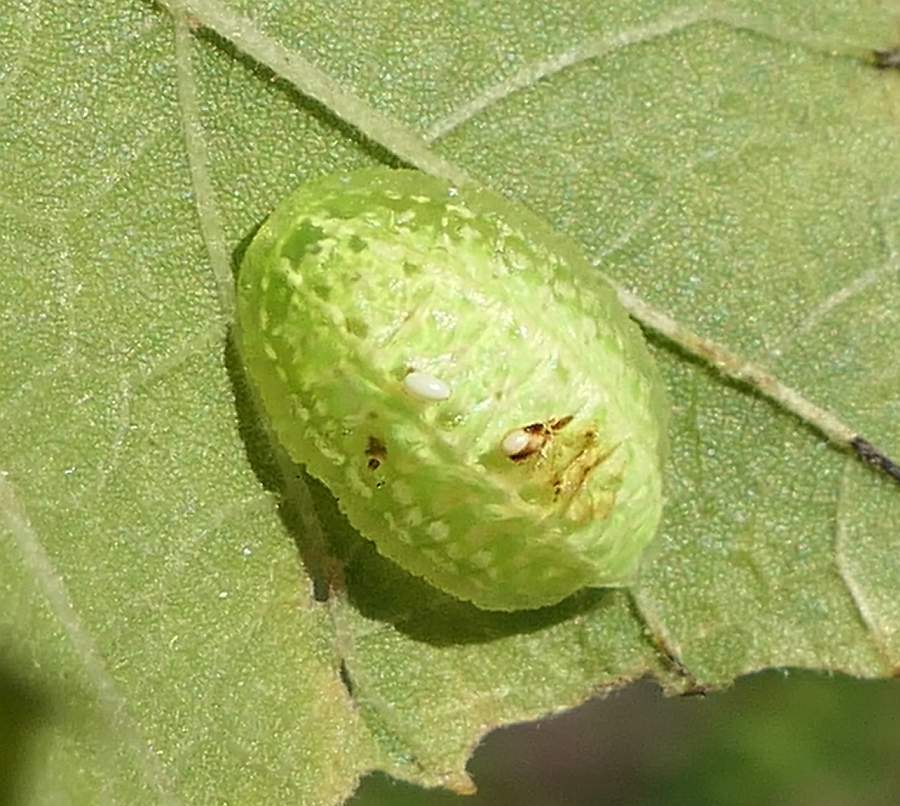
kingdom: Animalia
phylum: Arthropoda
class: Insecta
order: Lepidoptera
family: Limacodidae
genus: Lithacodes
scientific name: Lithacodes fasciola
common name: Yellow-shouldered slug moth
